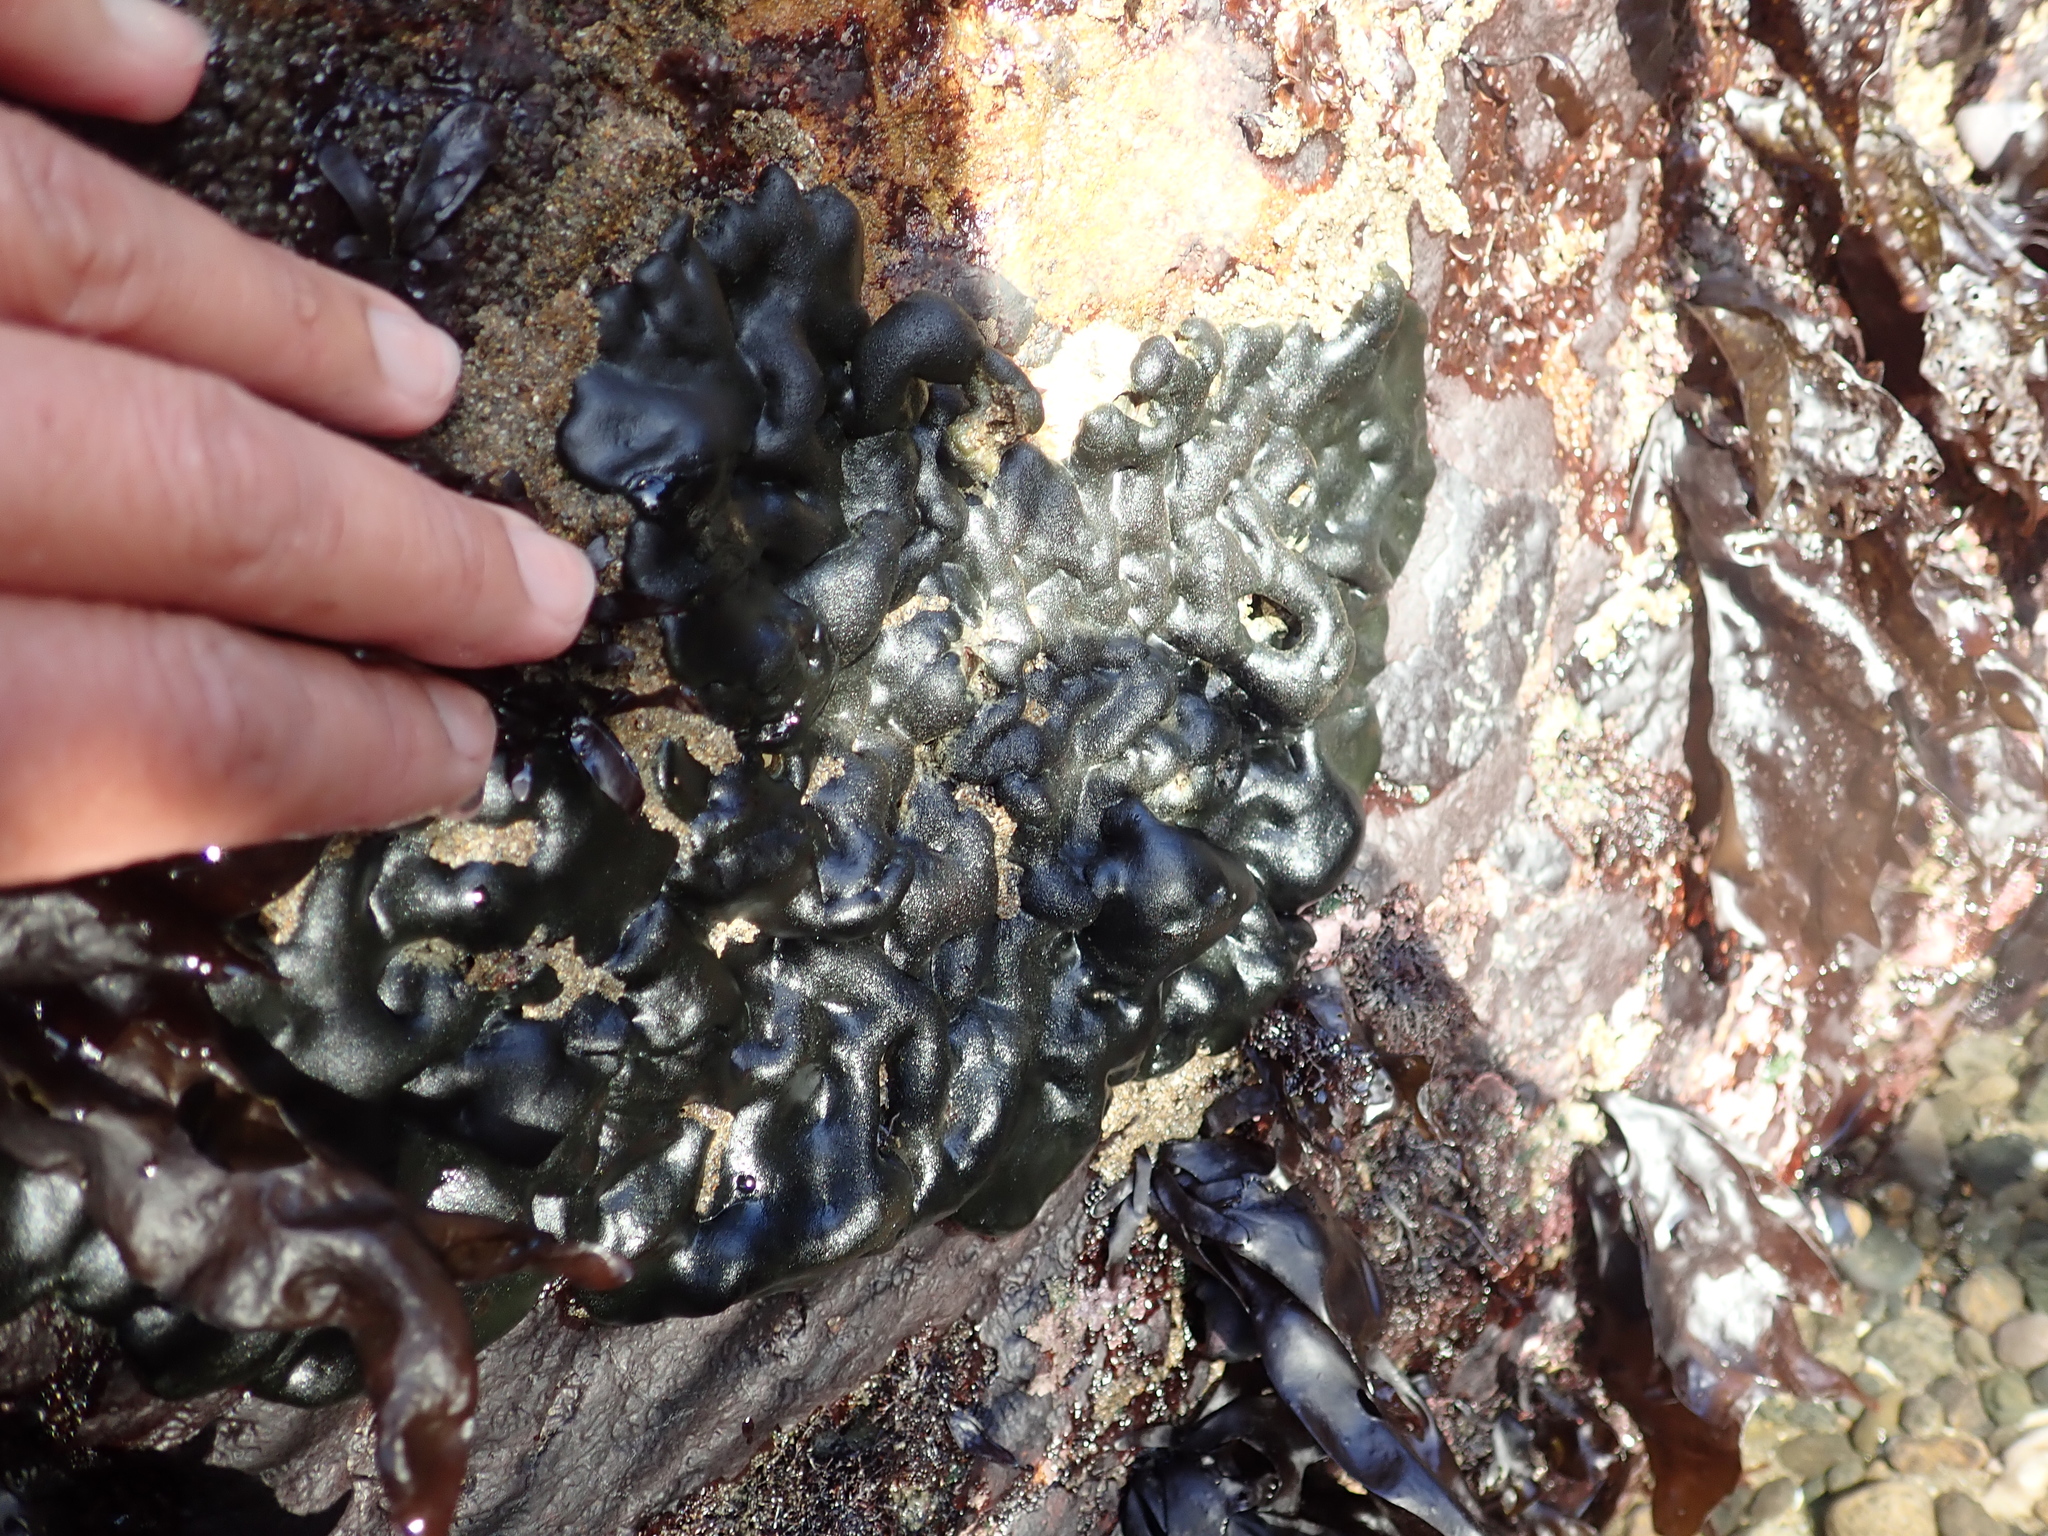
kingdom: Plantae
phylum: Chlorophyta
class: Ulvophyceae
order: Bryopsidales
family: Codiaceae
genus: Codium
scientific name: Codium setchellii
